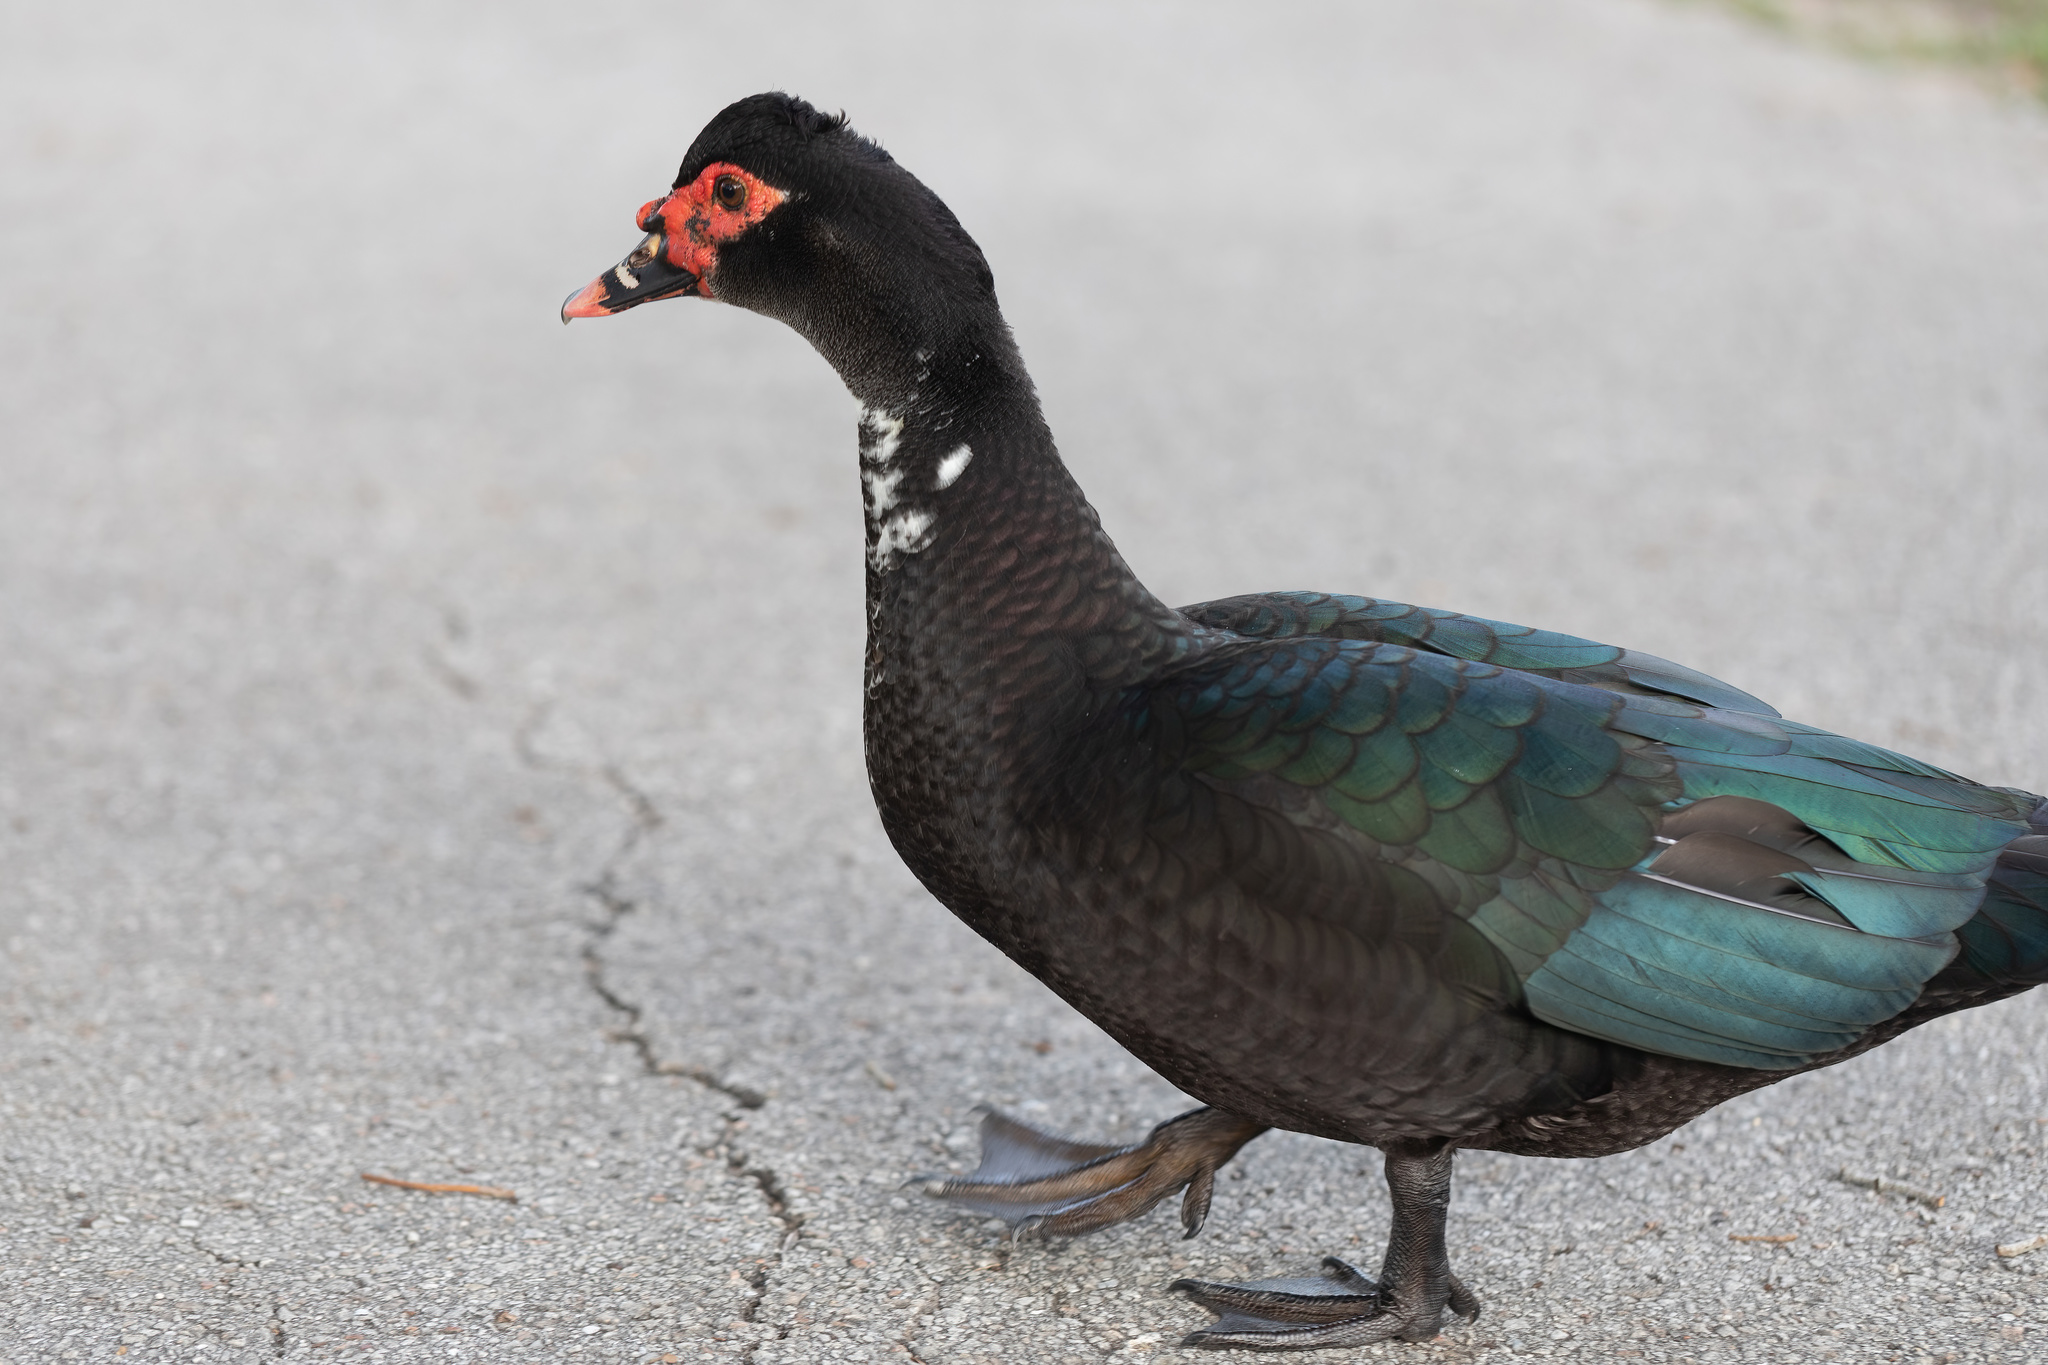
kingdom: Animalia
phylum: Chordata
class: Aves
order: Anseriformes
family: Anatidae
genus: Cairina
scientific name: Cairina moschata
